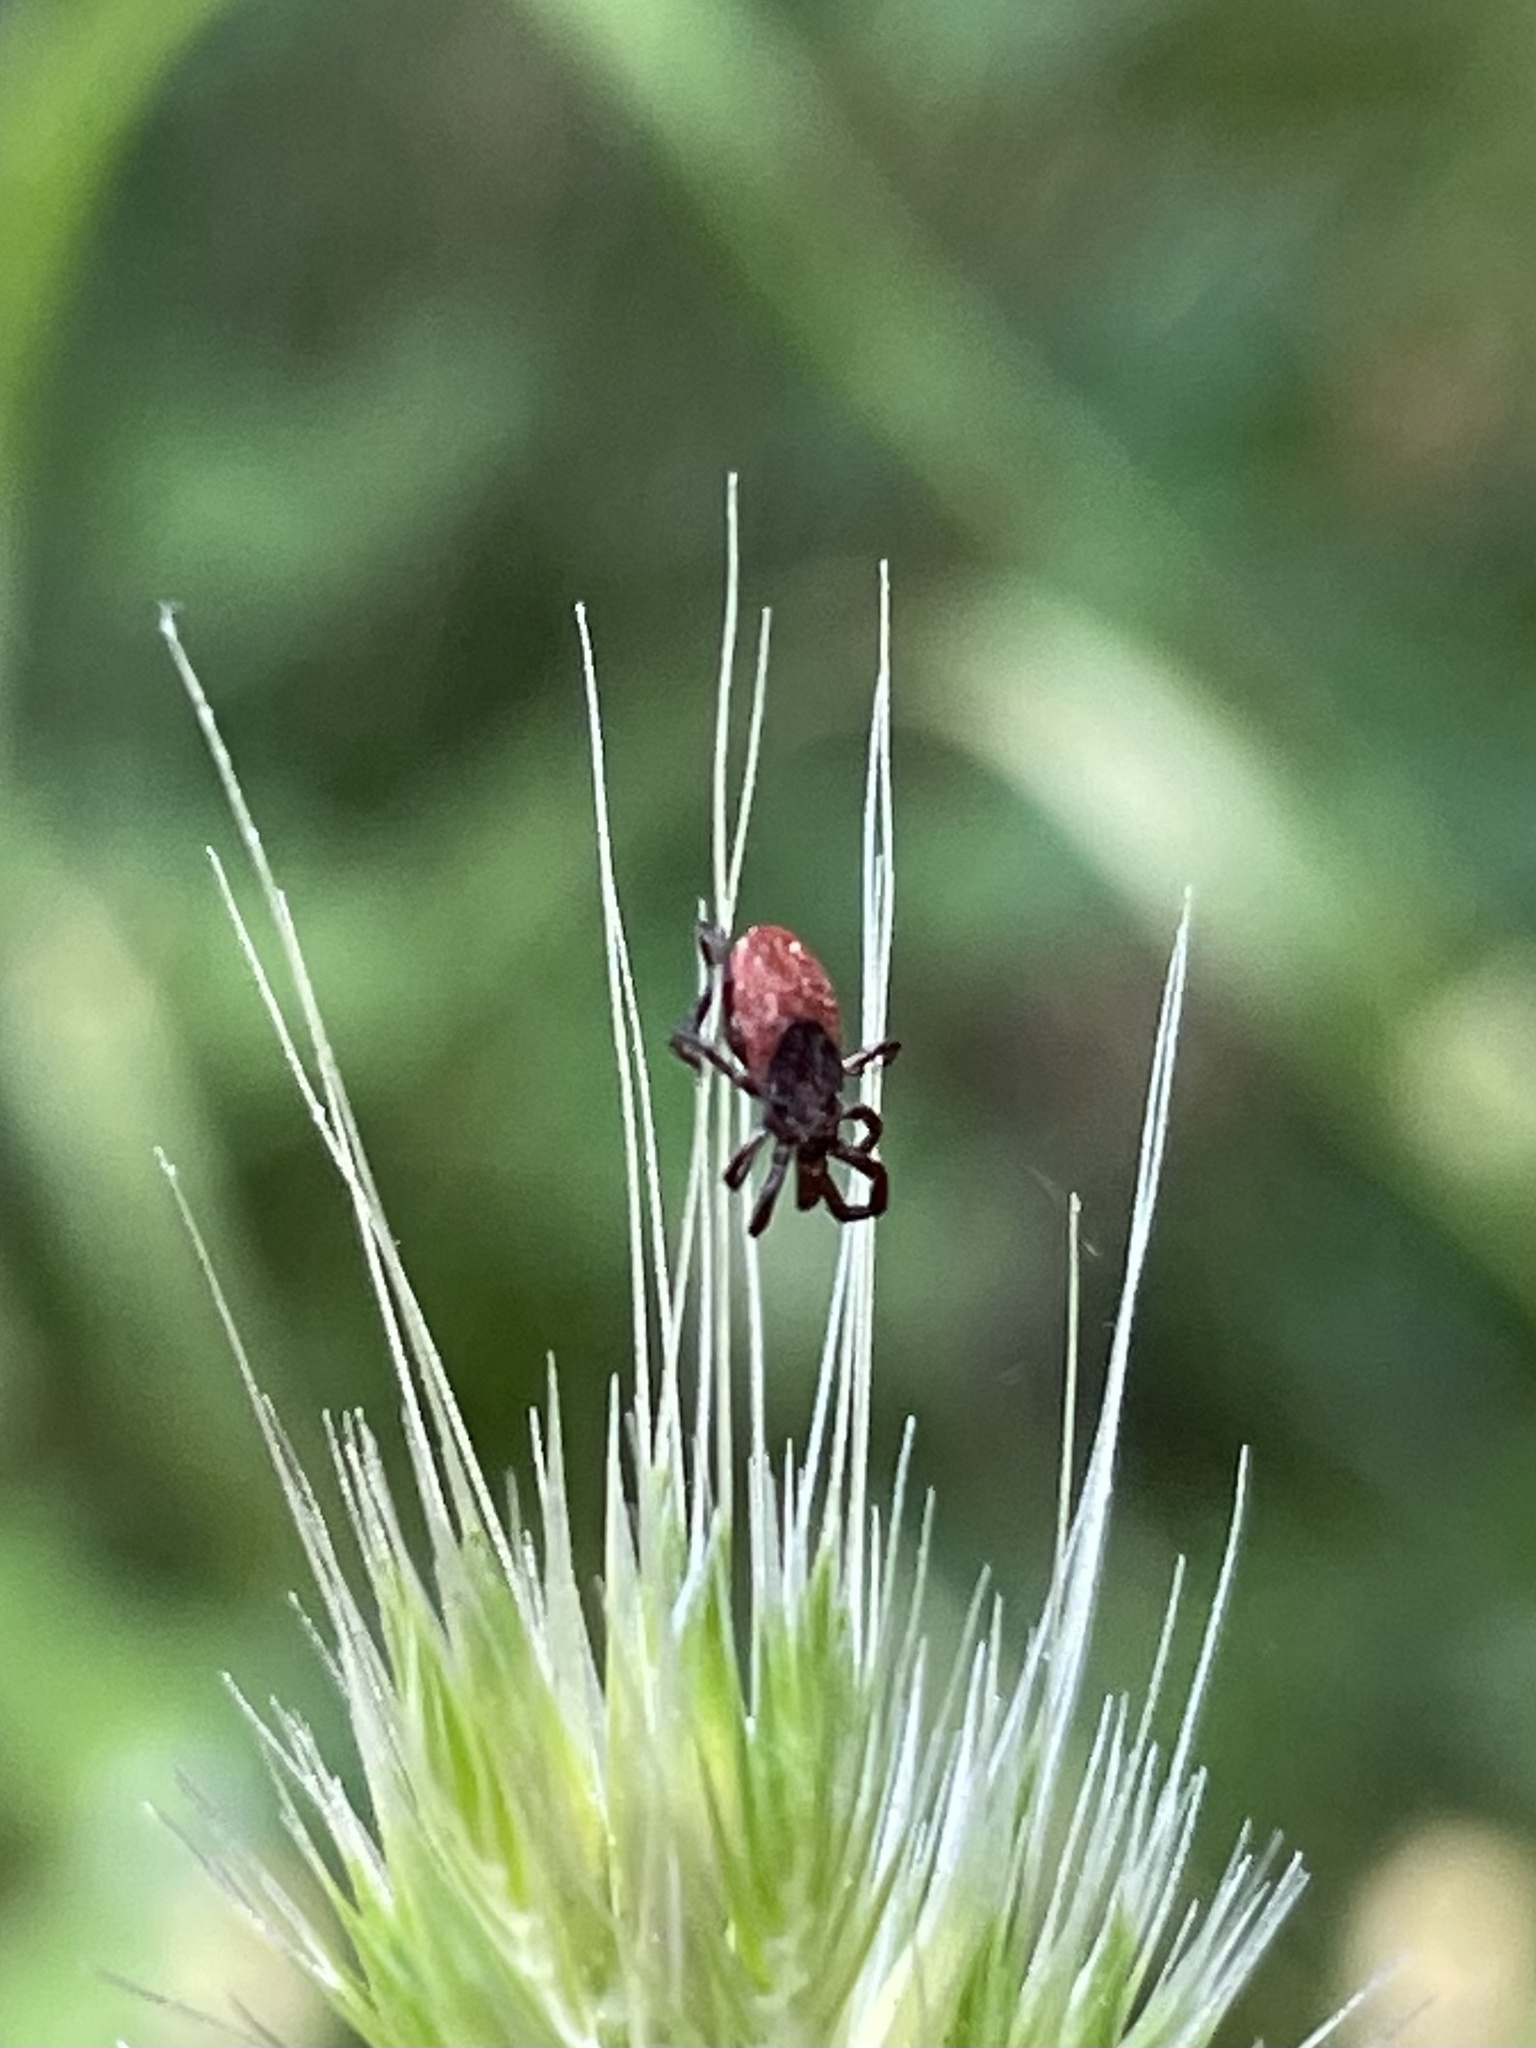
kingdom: Animalia
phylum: Arthropoda
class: Arachnida
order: Ixodida
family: Ixodidae
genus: Ixodes
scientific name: Ixodes pacificus
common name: California black-legged tick
